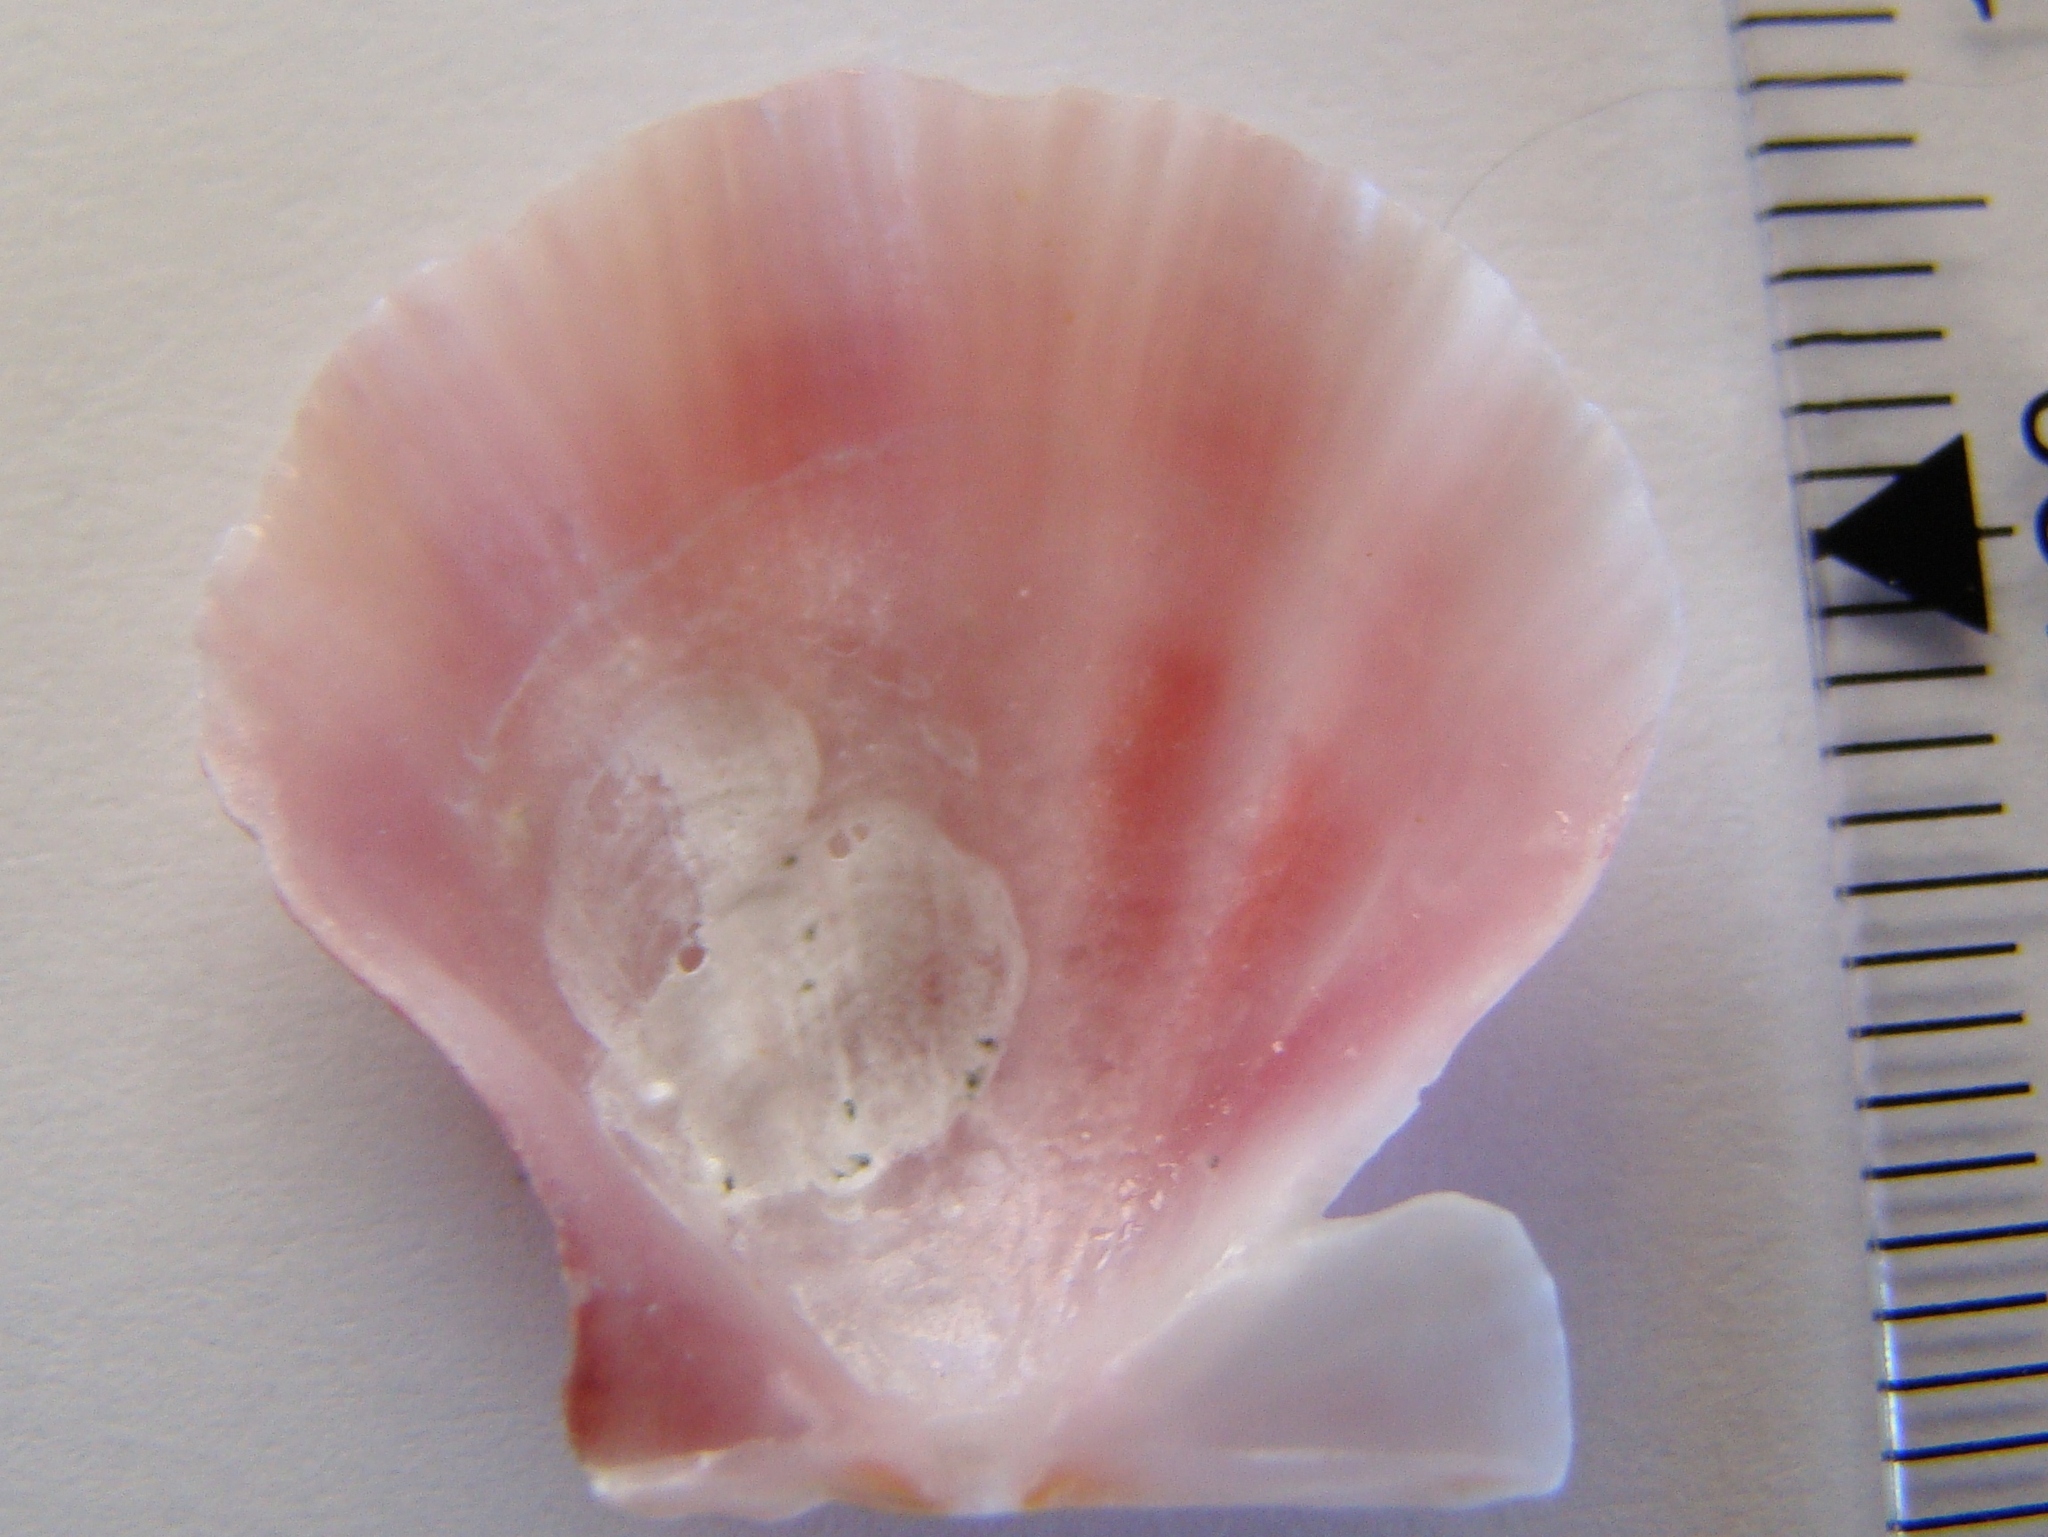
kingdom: Animalia
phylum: Mollusca
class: Bivalvia
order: Pectinida
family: Pectinidae
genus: Mesopeplum
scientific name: Mesopeplum convexum
